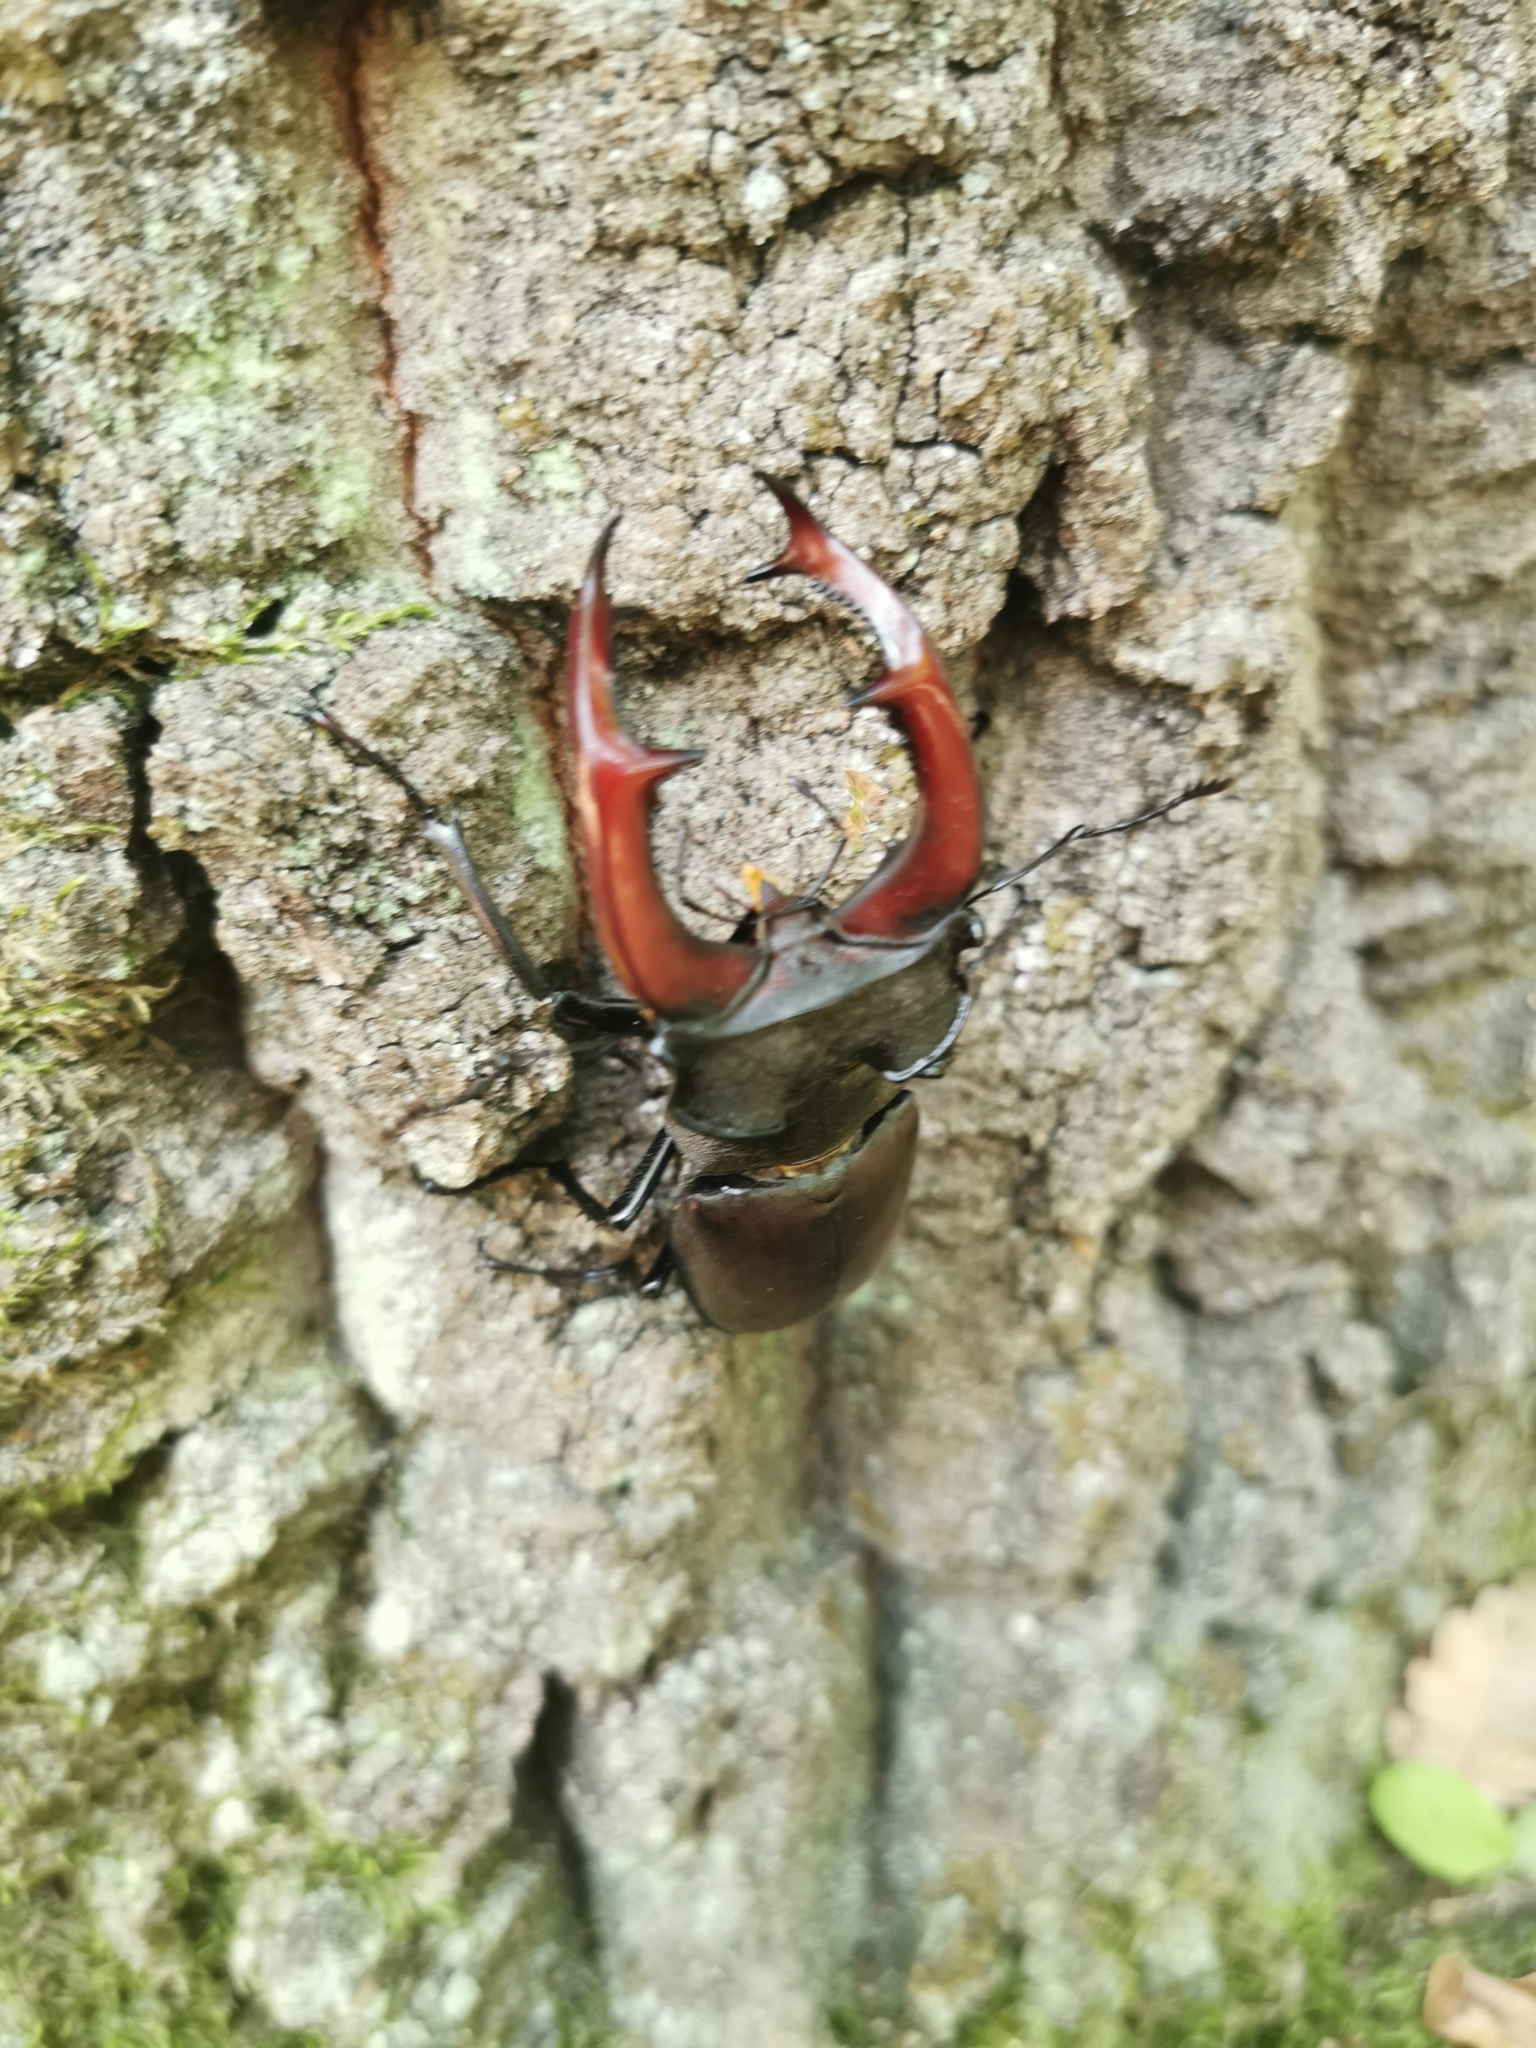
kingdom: Animalia
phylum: Arthropoda
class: Insecta
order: Coleoptera
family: Lucanidae
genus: Lucanus
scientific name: Lucanus cervus
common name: Stag beetle
